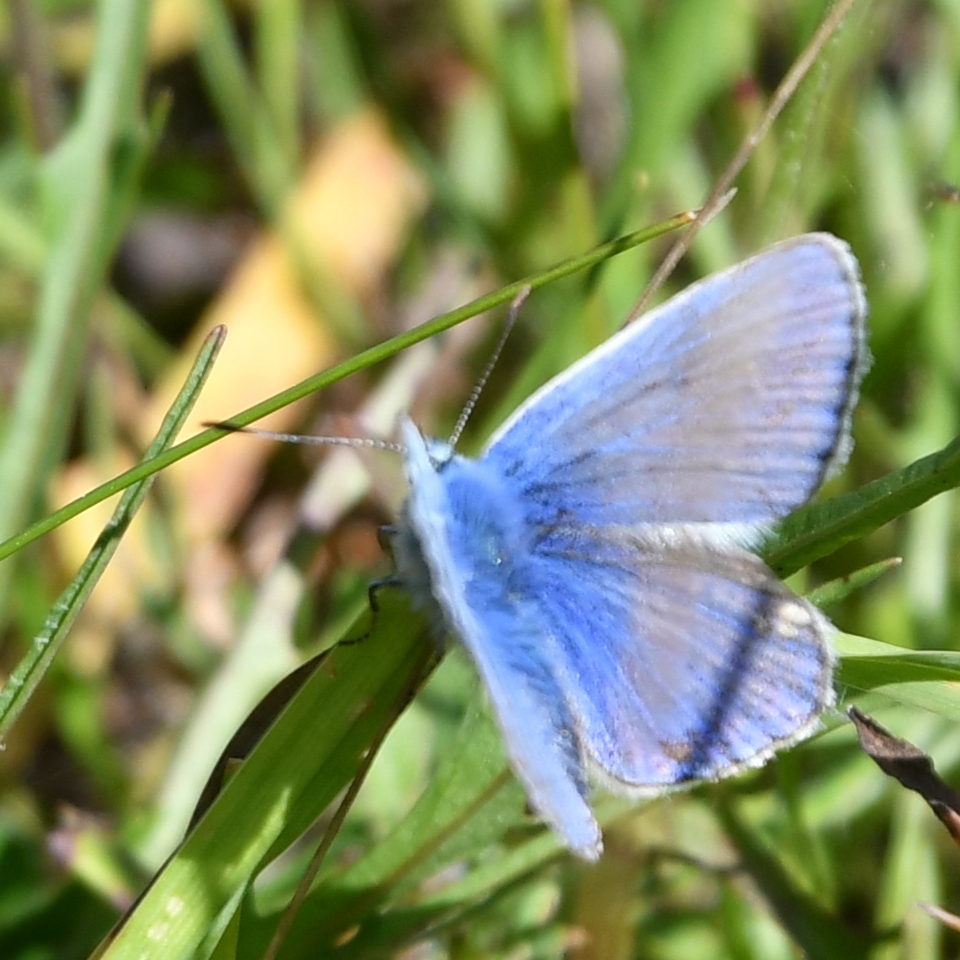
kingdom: Animalia
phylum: Arthropoda
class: Insecta
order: Lepidoptera
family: Lycaenidae
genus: Polyommatus
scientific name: Polyommatus icarus
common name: Common blue
